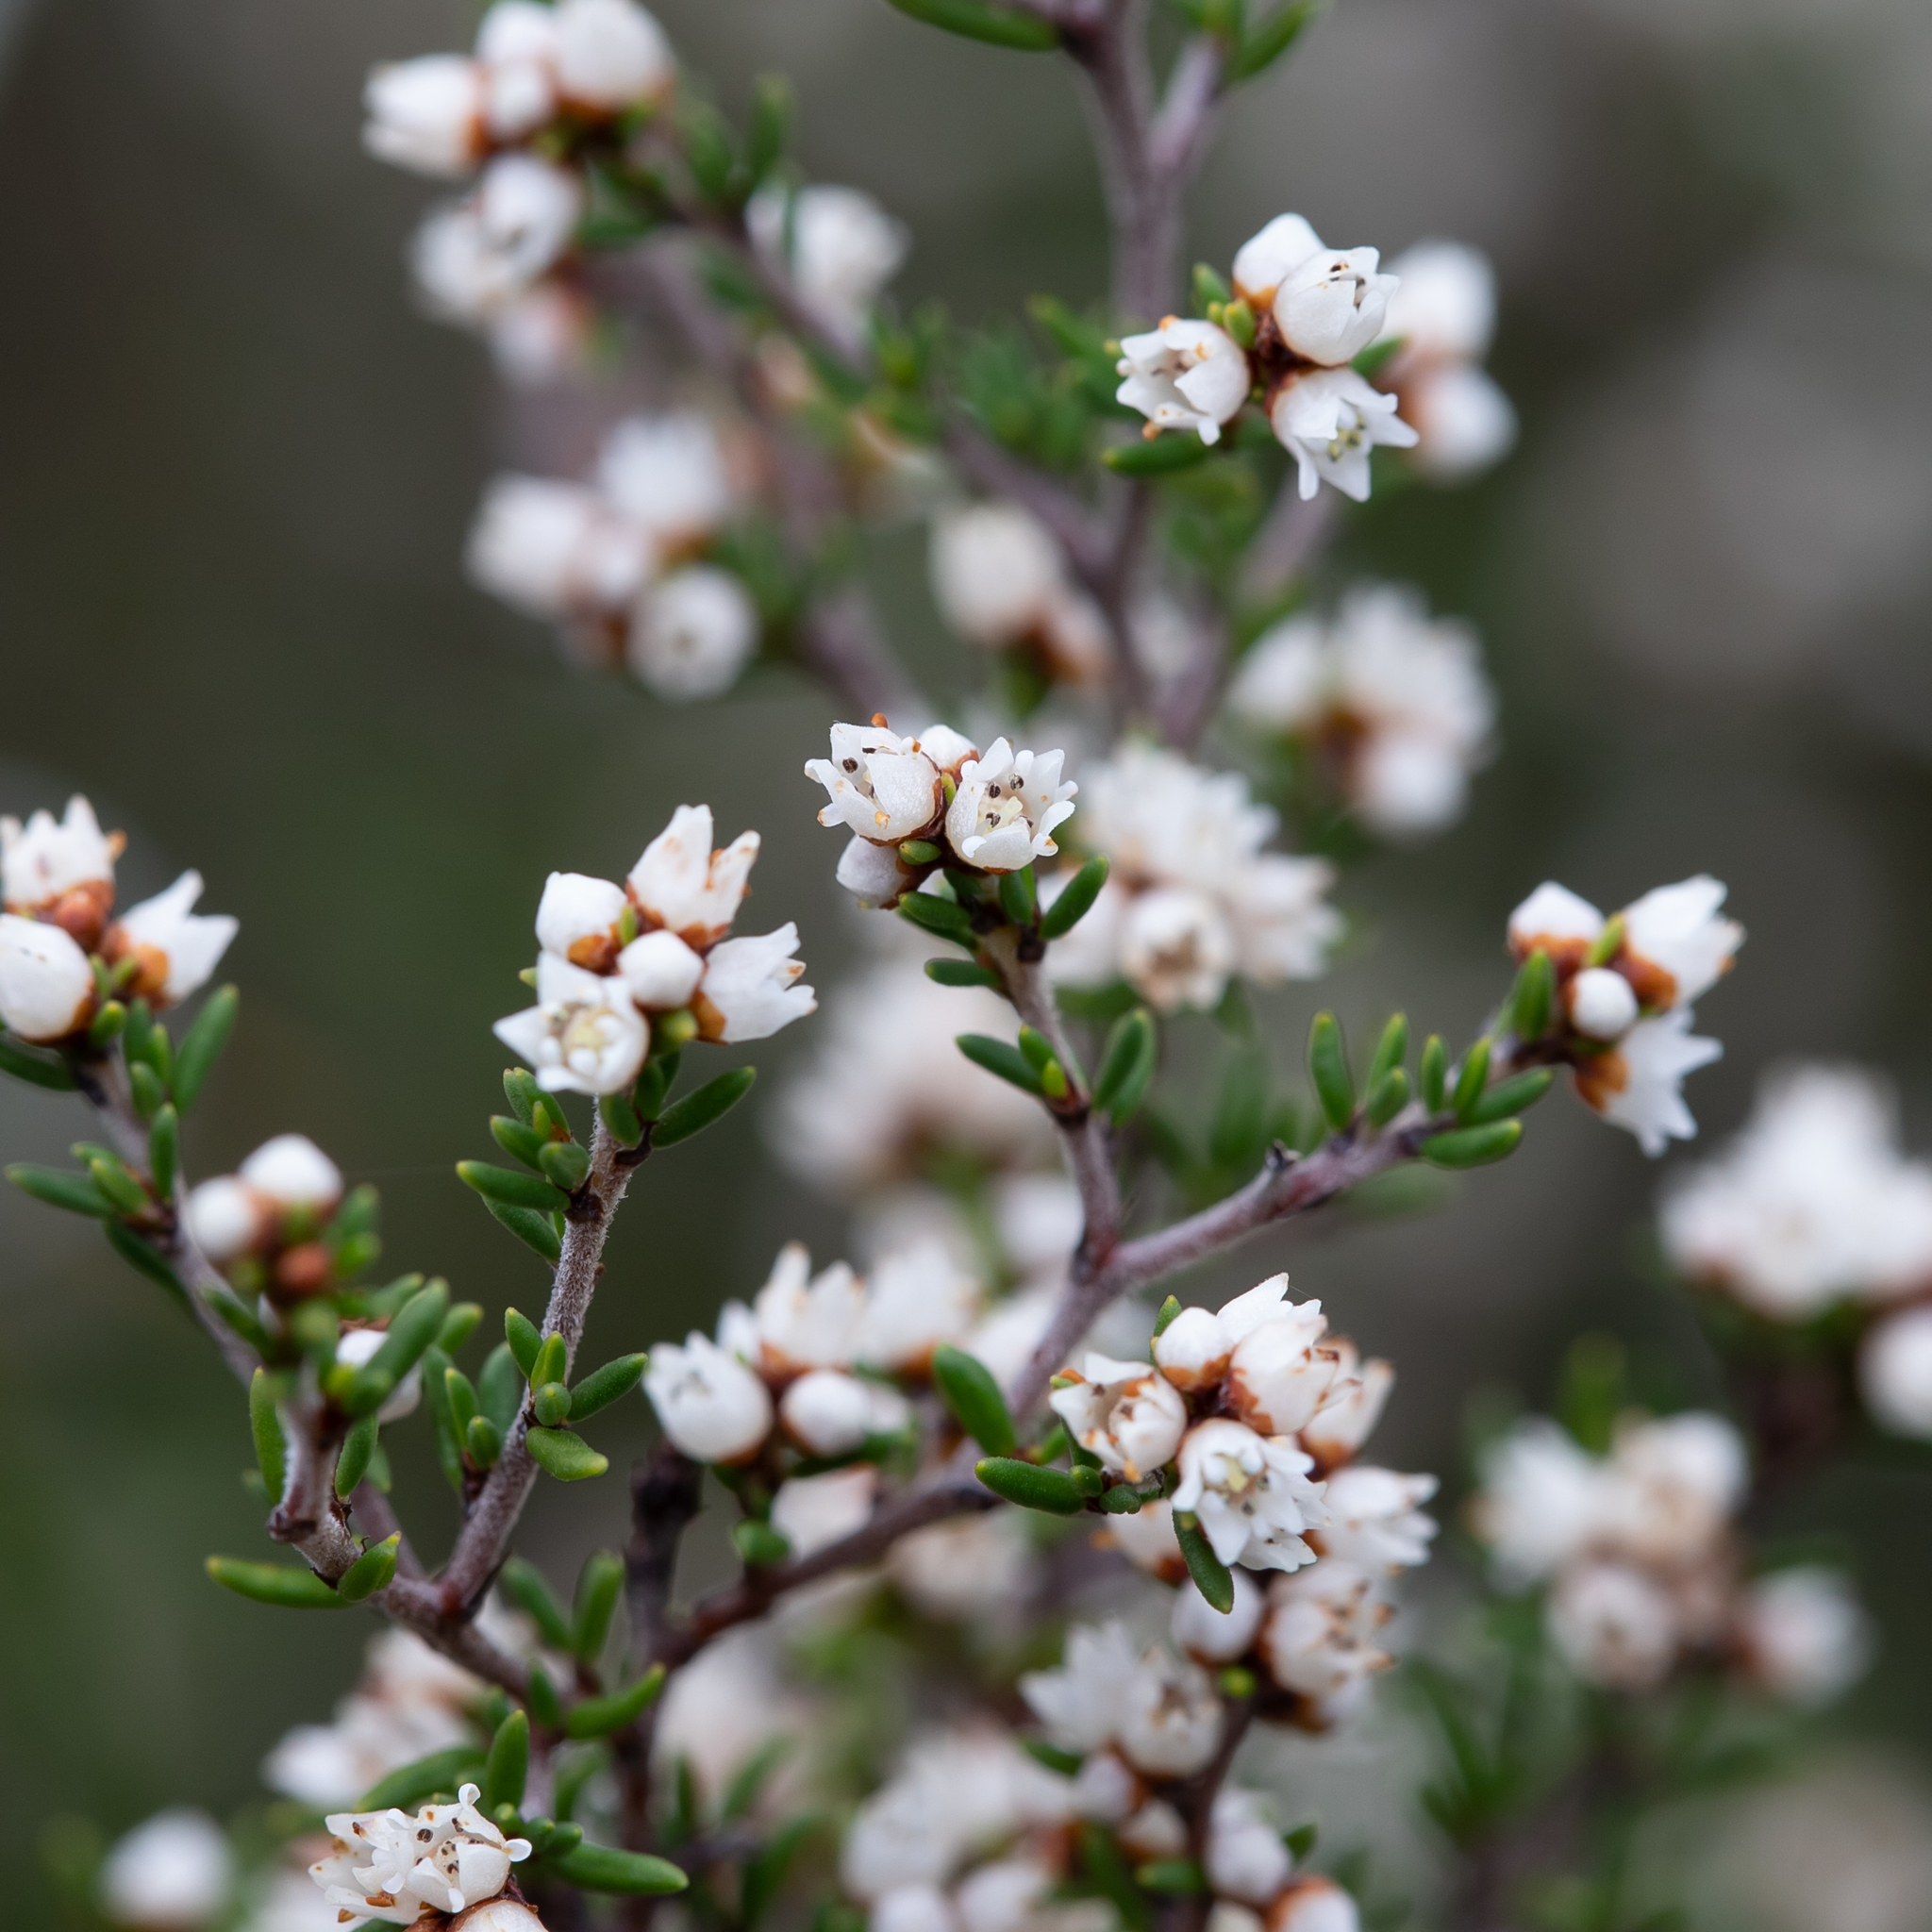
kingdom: Plantae
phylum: Tracheophyta
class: Magnoliopsida
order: Rosales
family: Rhamnaceae
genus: Cryptandra
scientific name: Cryptandra tomentosa
